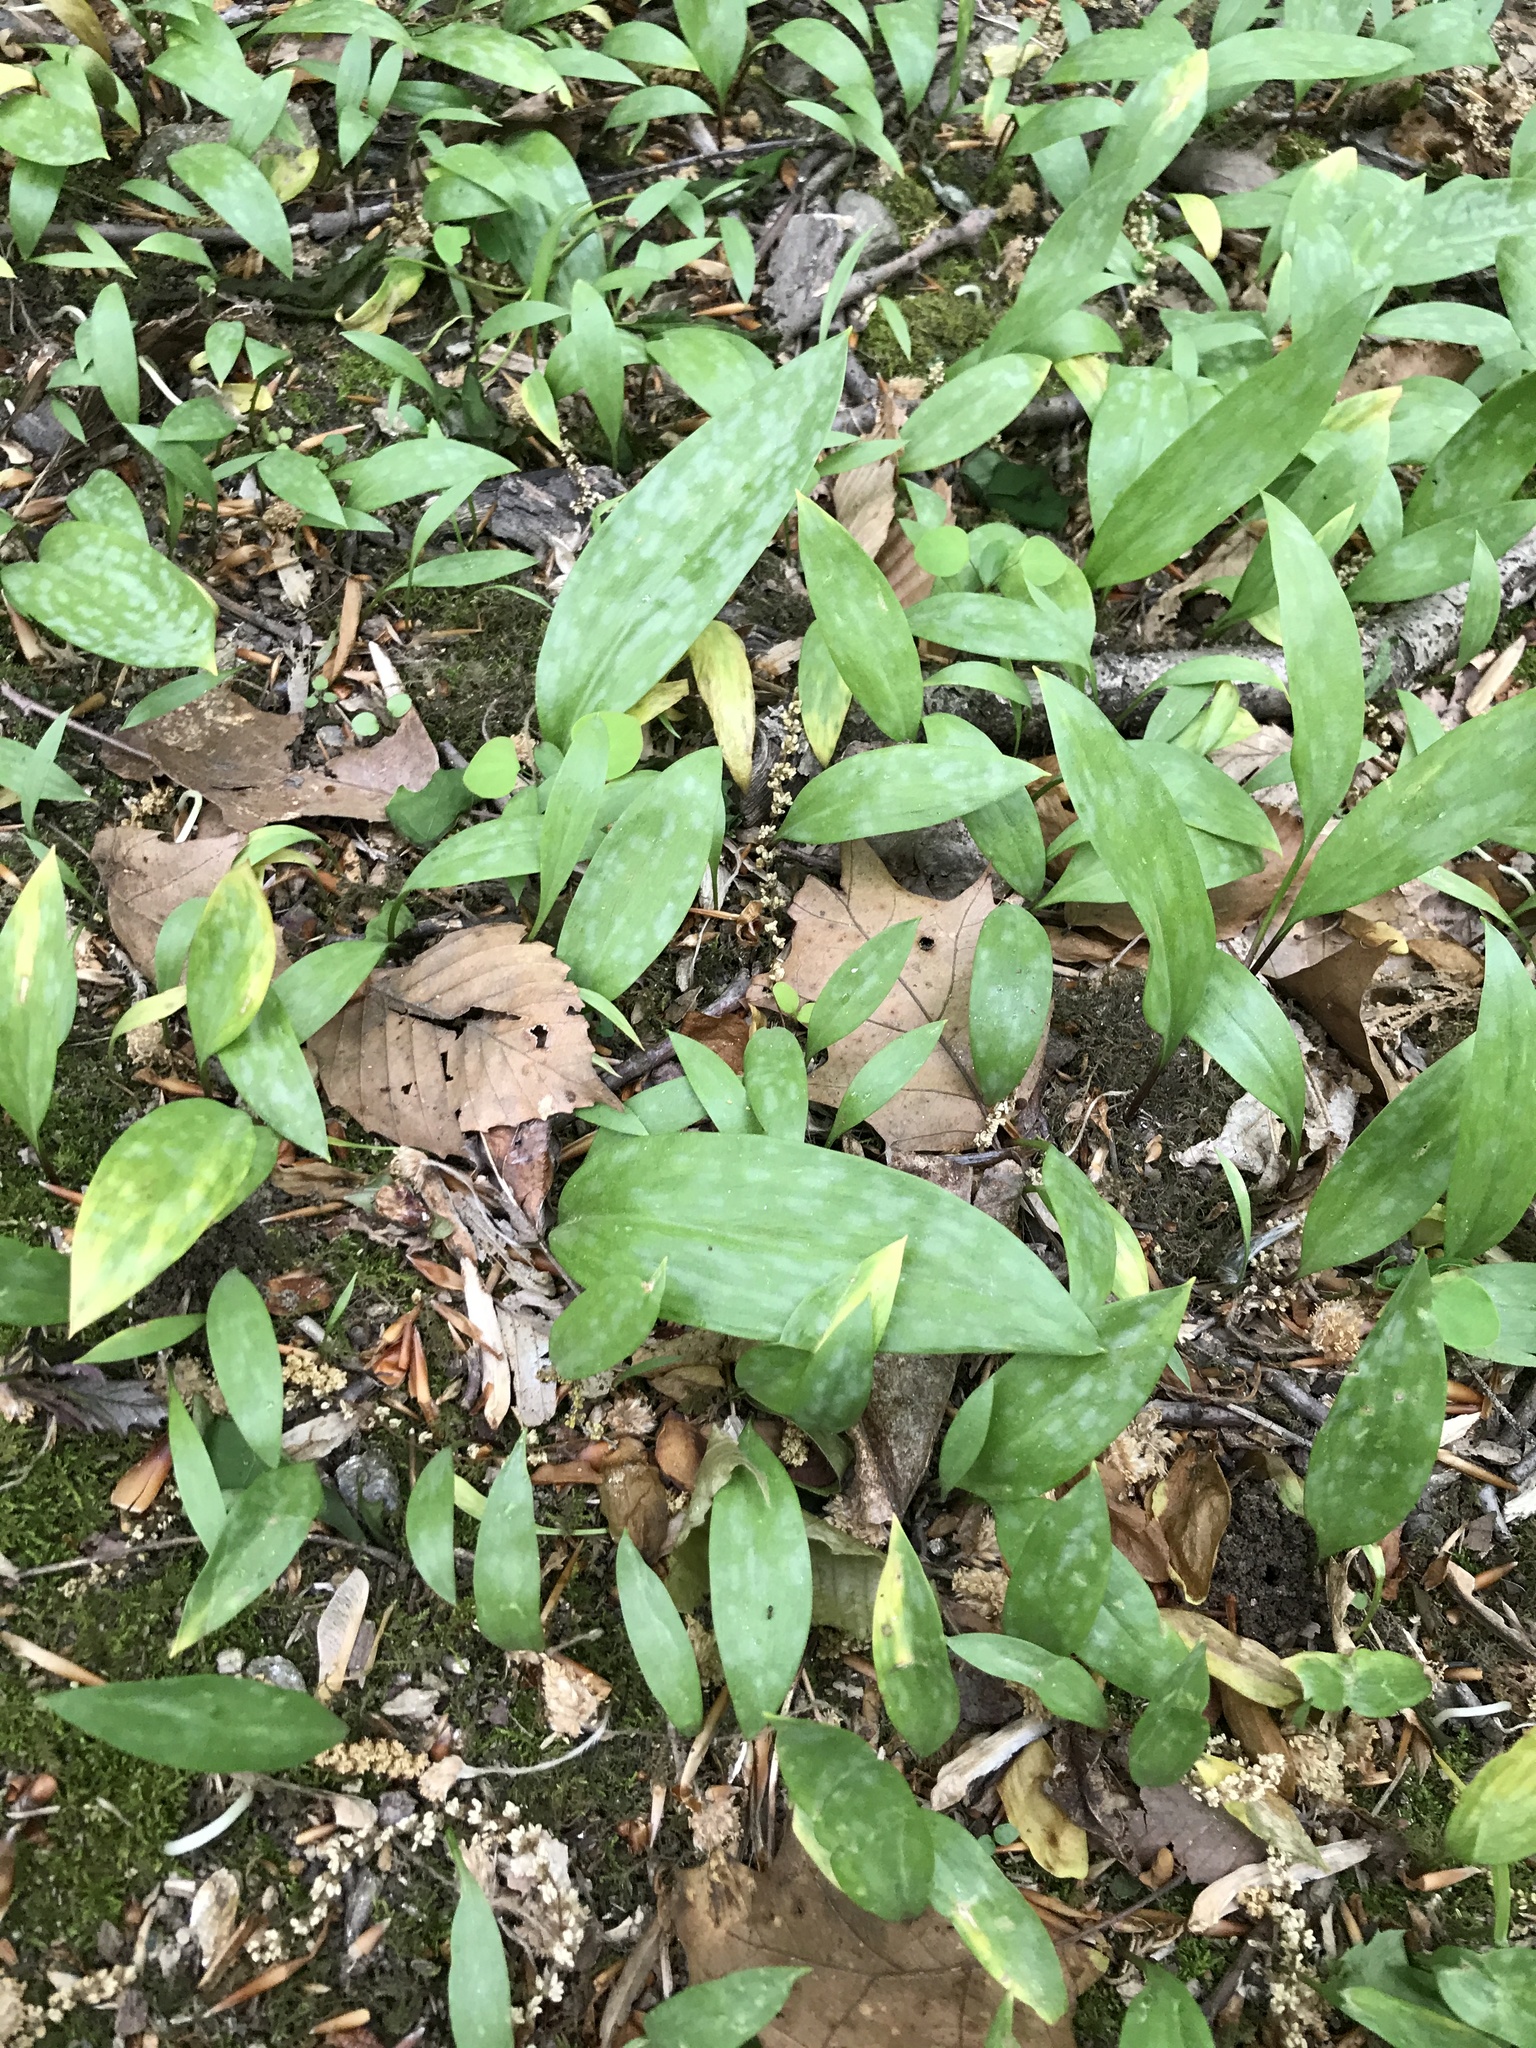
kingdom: Plantae
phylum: Tracheophyta
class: Liliopsida
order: Liliales
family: Liliaceae
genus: Erythronium
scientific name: Erythronium americanum
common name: Yellow adder's-tongue
